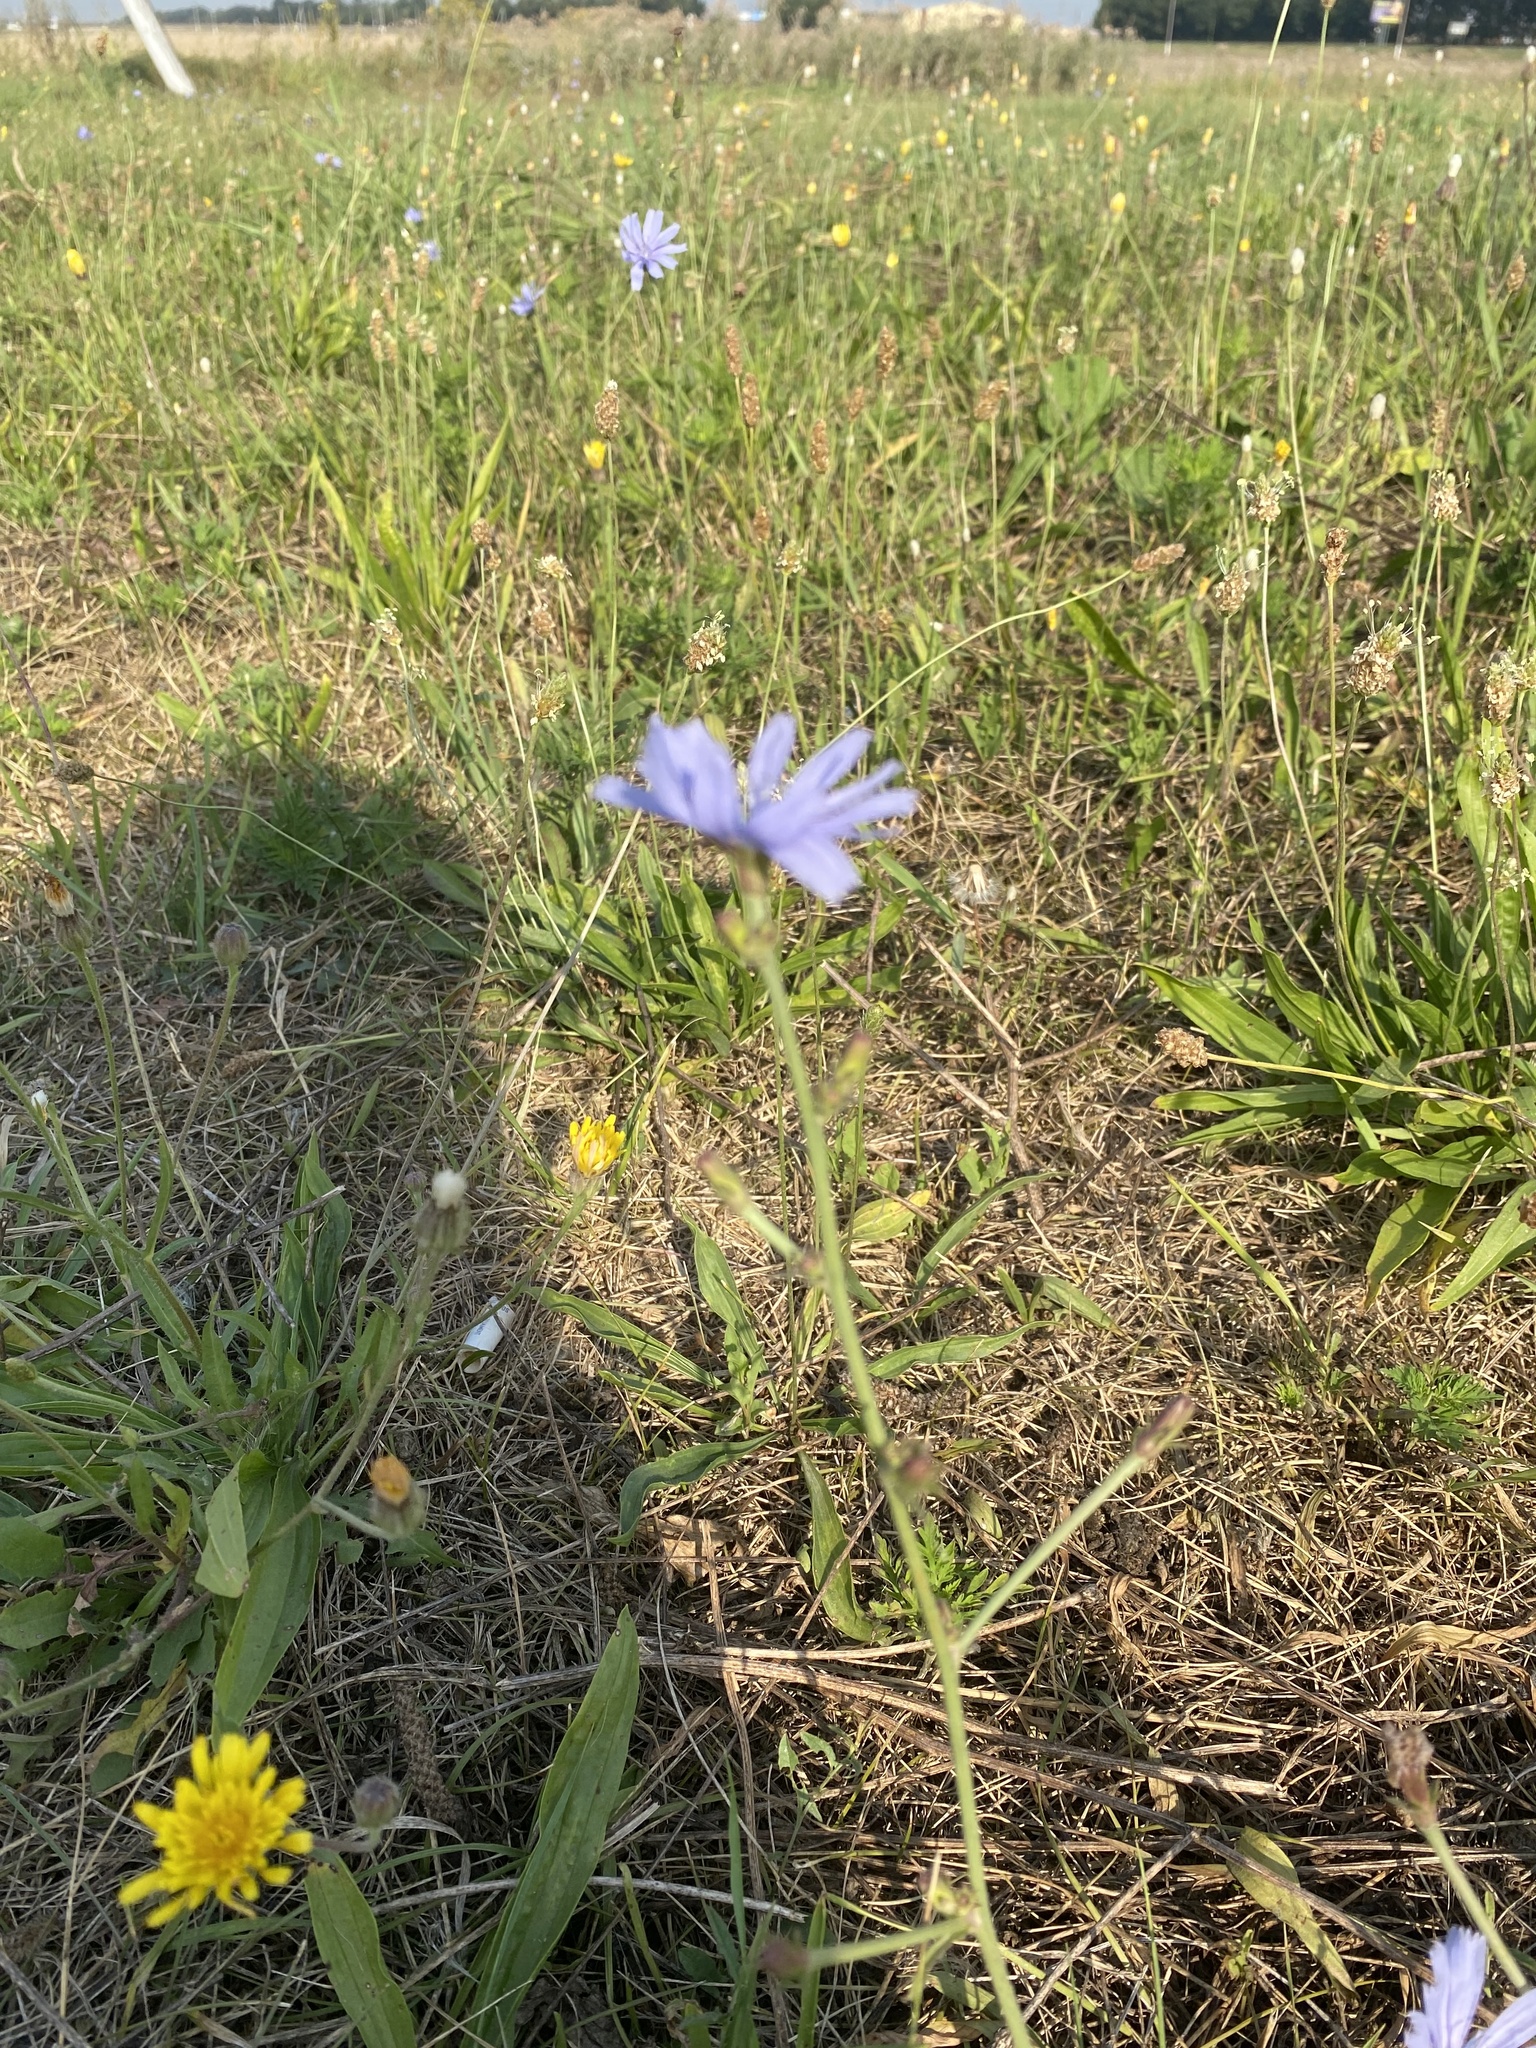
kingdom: Plantae
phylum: Tracheophyta
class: Magnoliopsida
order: Asterales
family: Asteraceae
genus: Cichorium
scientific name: Cichorium intybus
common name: Chicory
